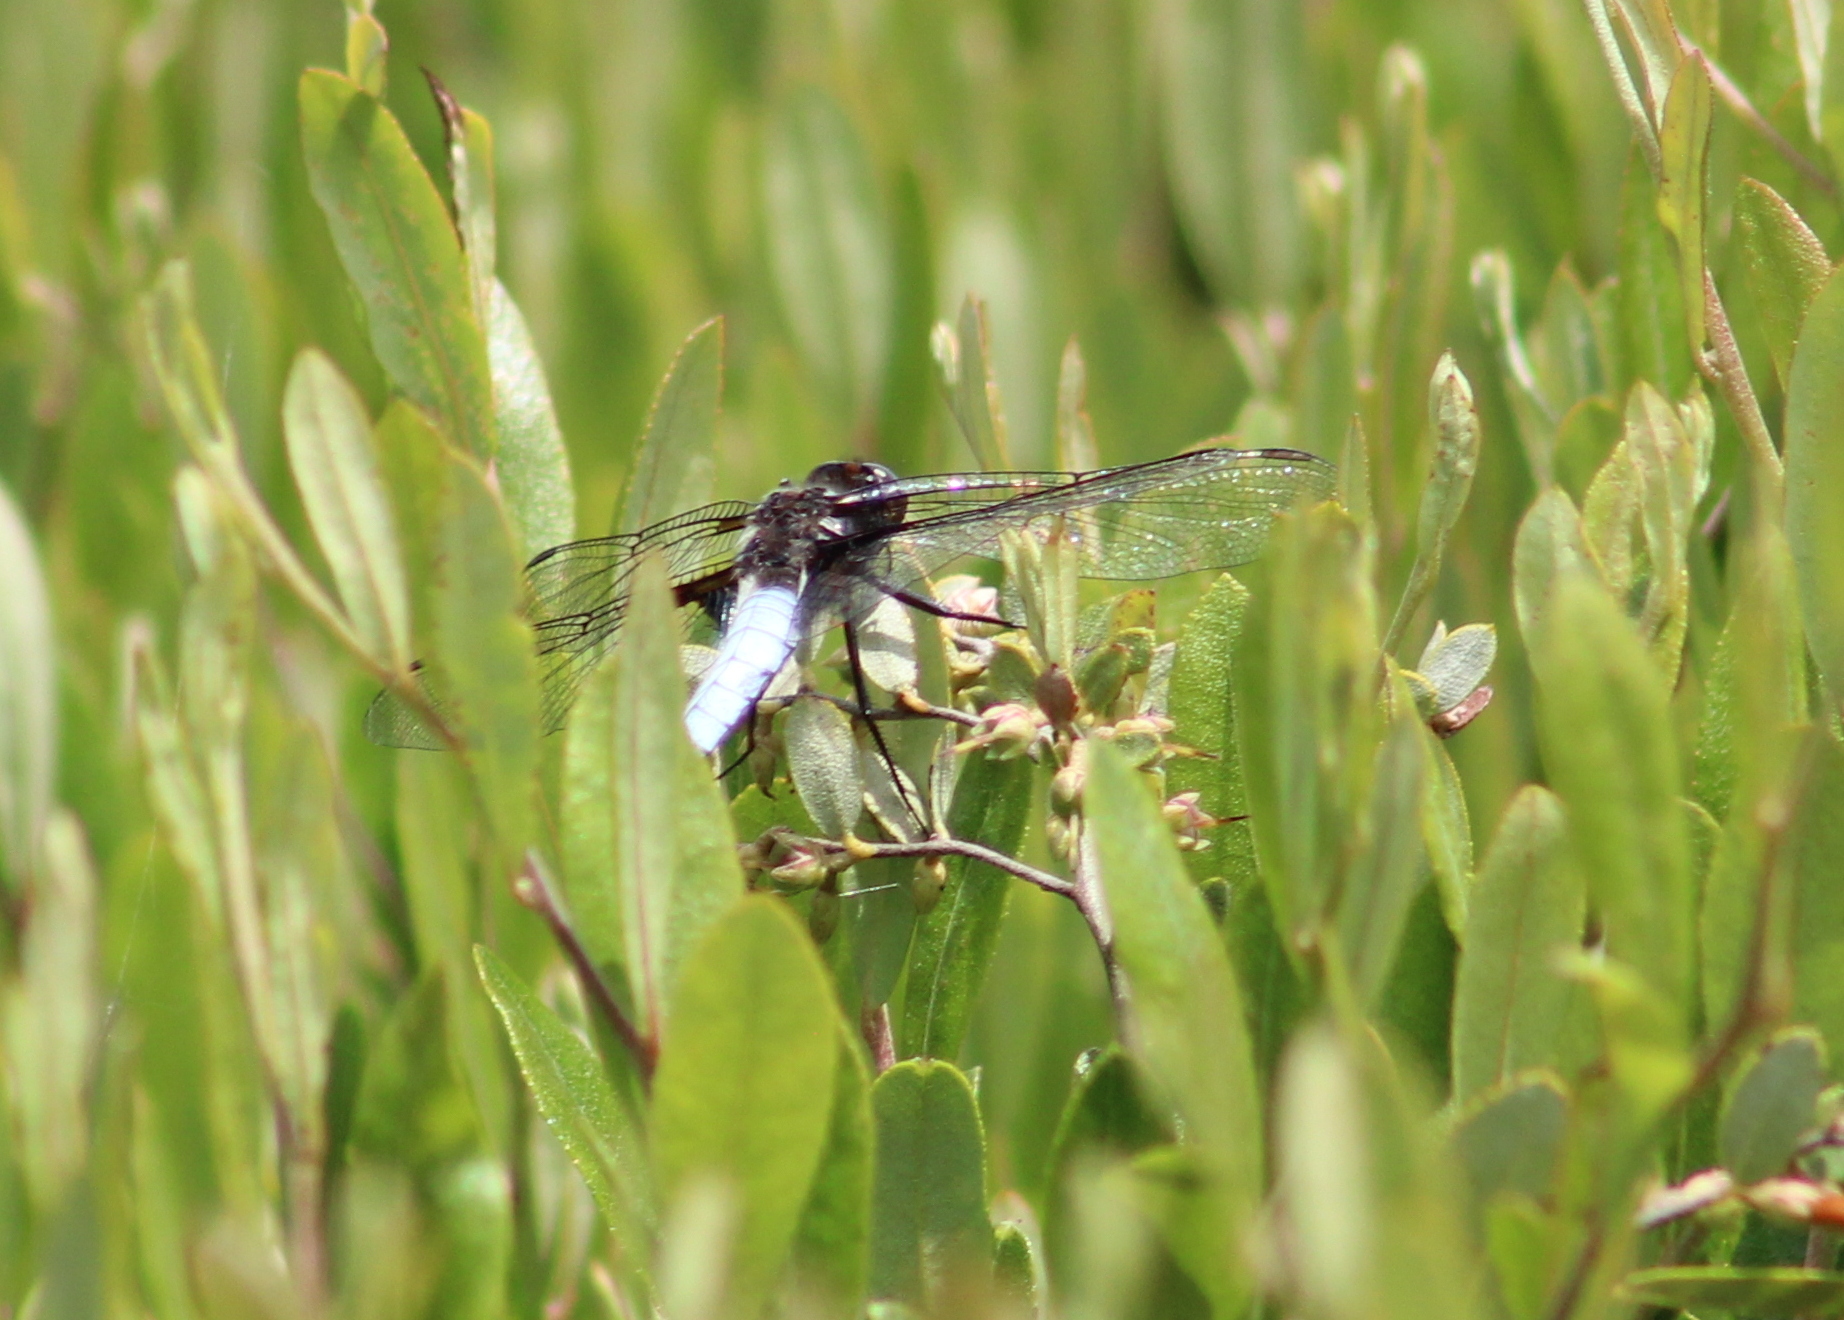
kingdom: Animalia
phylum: Arthropoda
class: Insecta
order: Odonata
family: Libellulidae
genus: Ladona
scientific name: Ladona exusta
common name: Libellule embrasée
